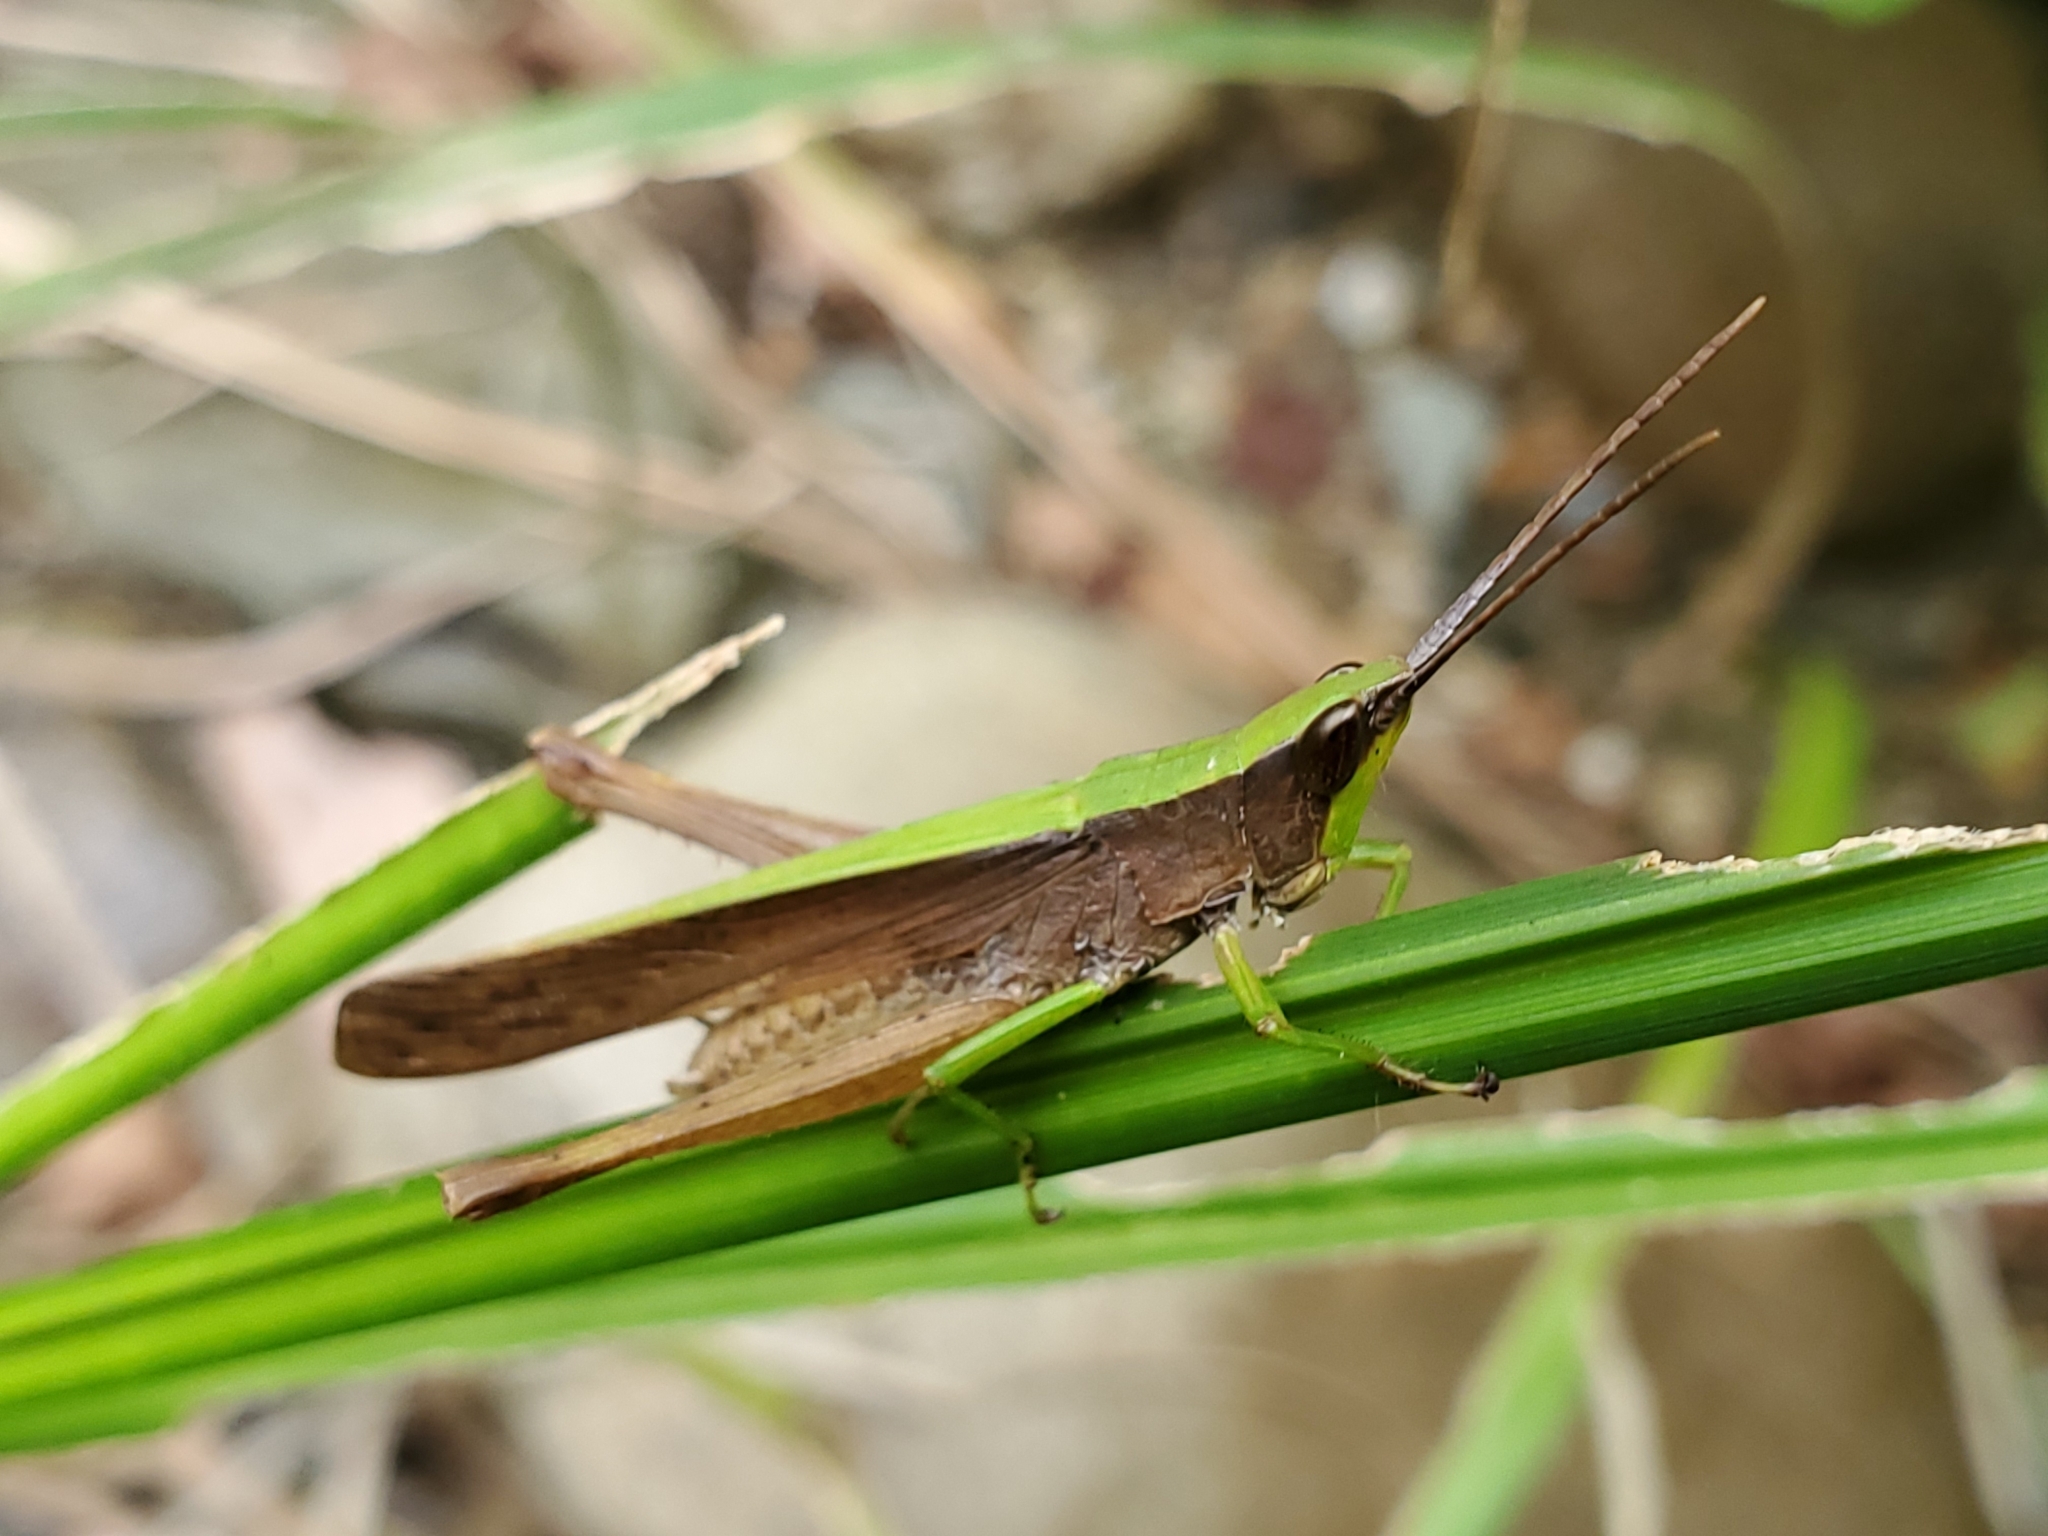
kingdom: Animalia
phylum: Arthropoda
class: Insecta
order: Orthoptera
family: Acrididae
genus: Metaleptea
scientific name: Metaleptea brevicornis
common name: Clipped-wing grasshopper
